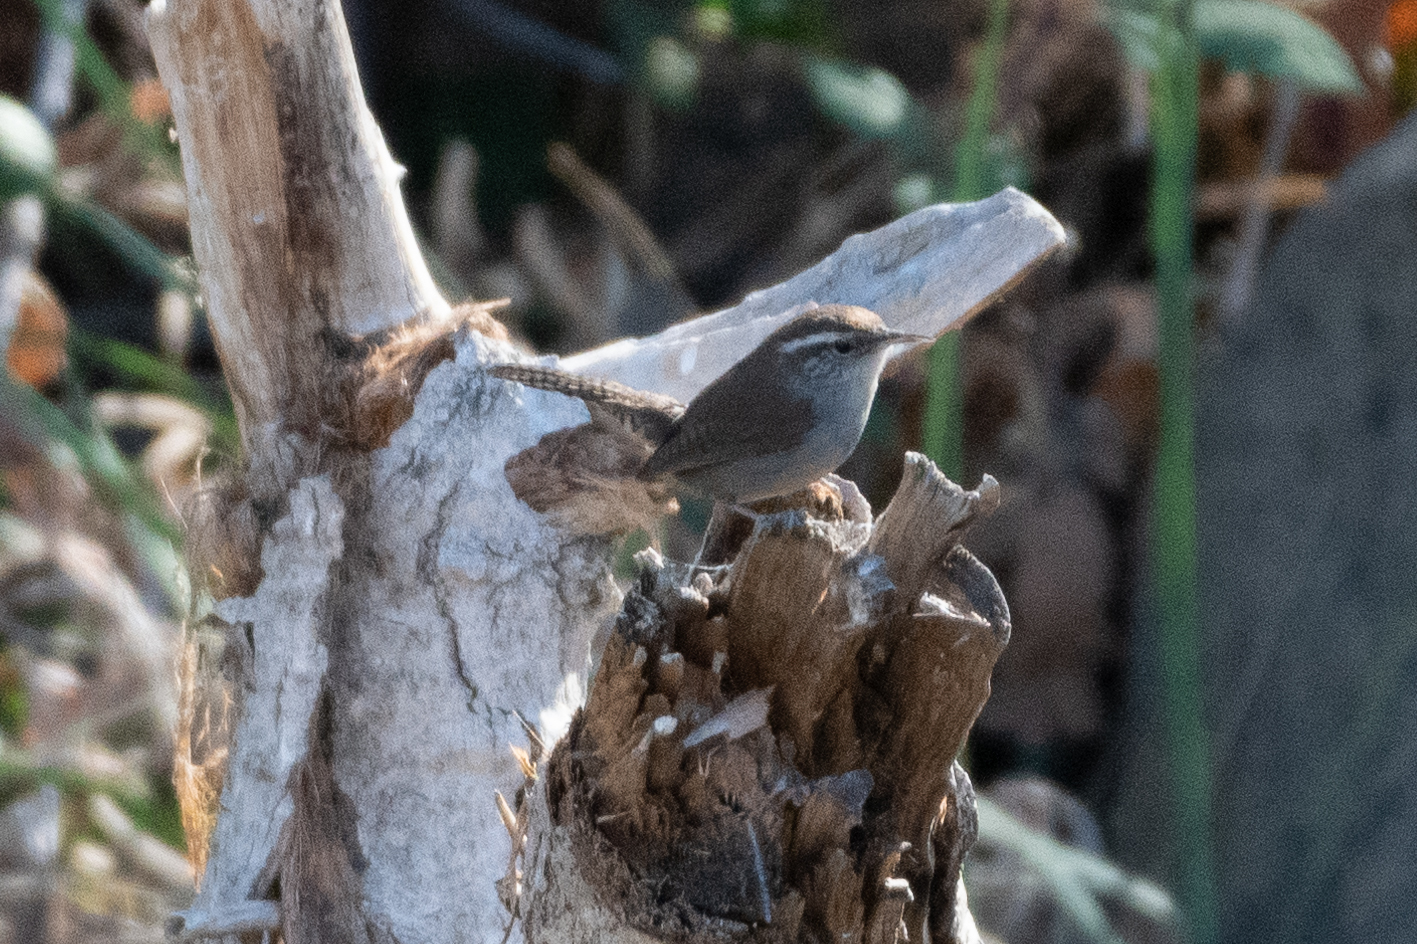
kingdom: Animalia
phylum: Chordata
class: Aves
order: Passeriformes
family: Troglodytidae
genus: Thryomanes
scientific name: Thryomanes bewickii
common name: Bewick's wren
